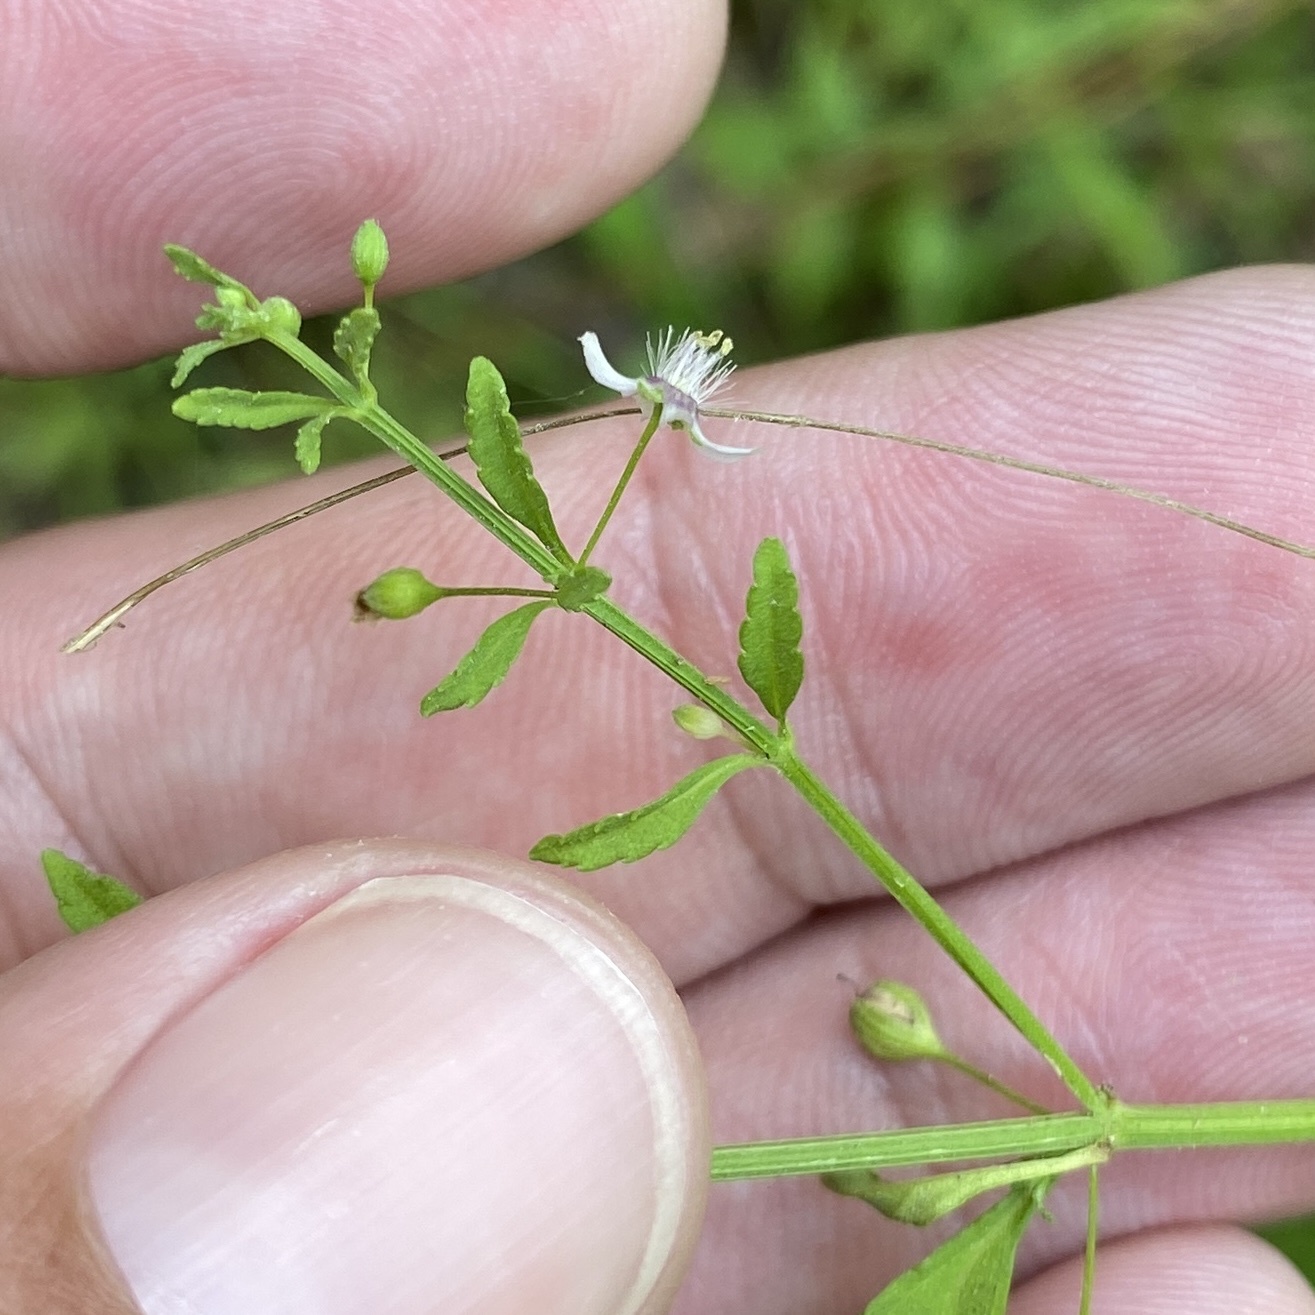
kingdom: Plantae
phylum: Tracheophyta
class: Magnoliopsida
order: Lamiales
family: Plantaginaceae
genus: Scoparia
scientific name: Scoparia dulcis
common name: Scoparia-weed
